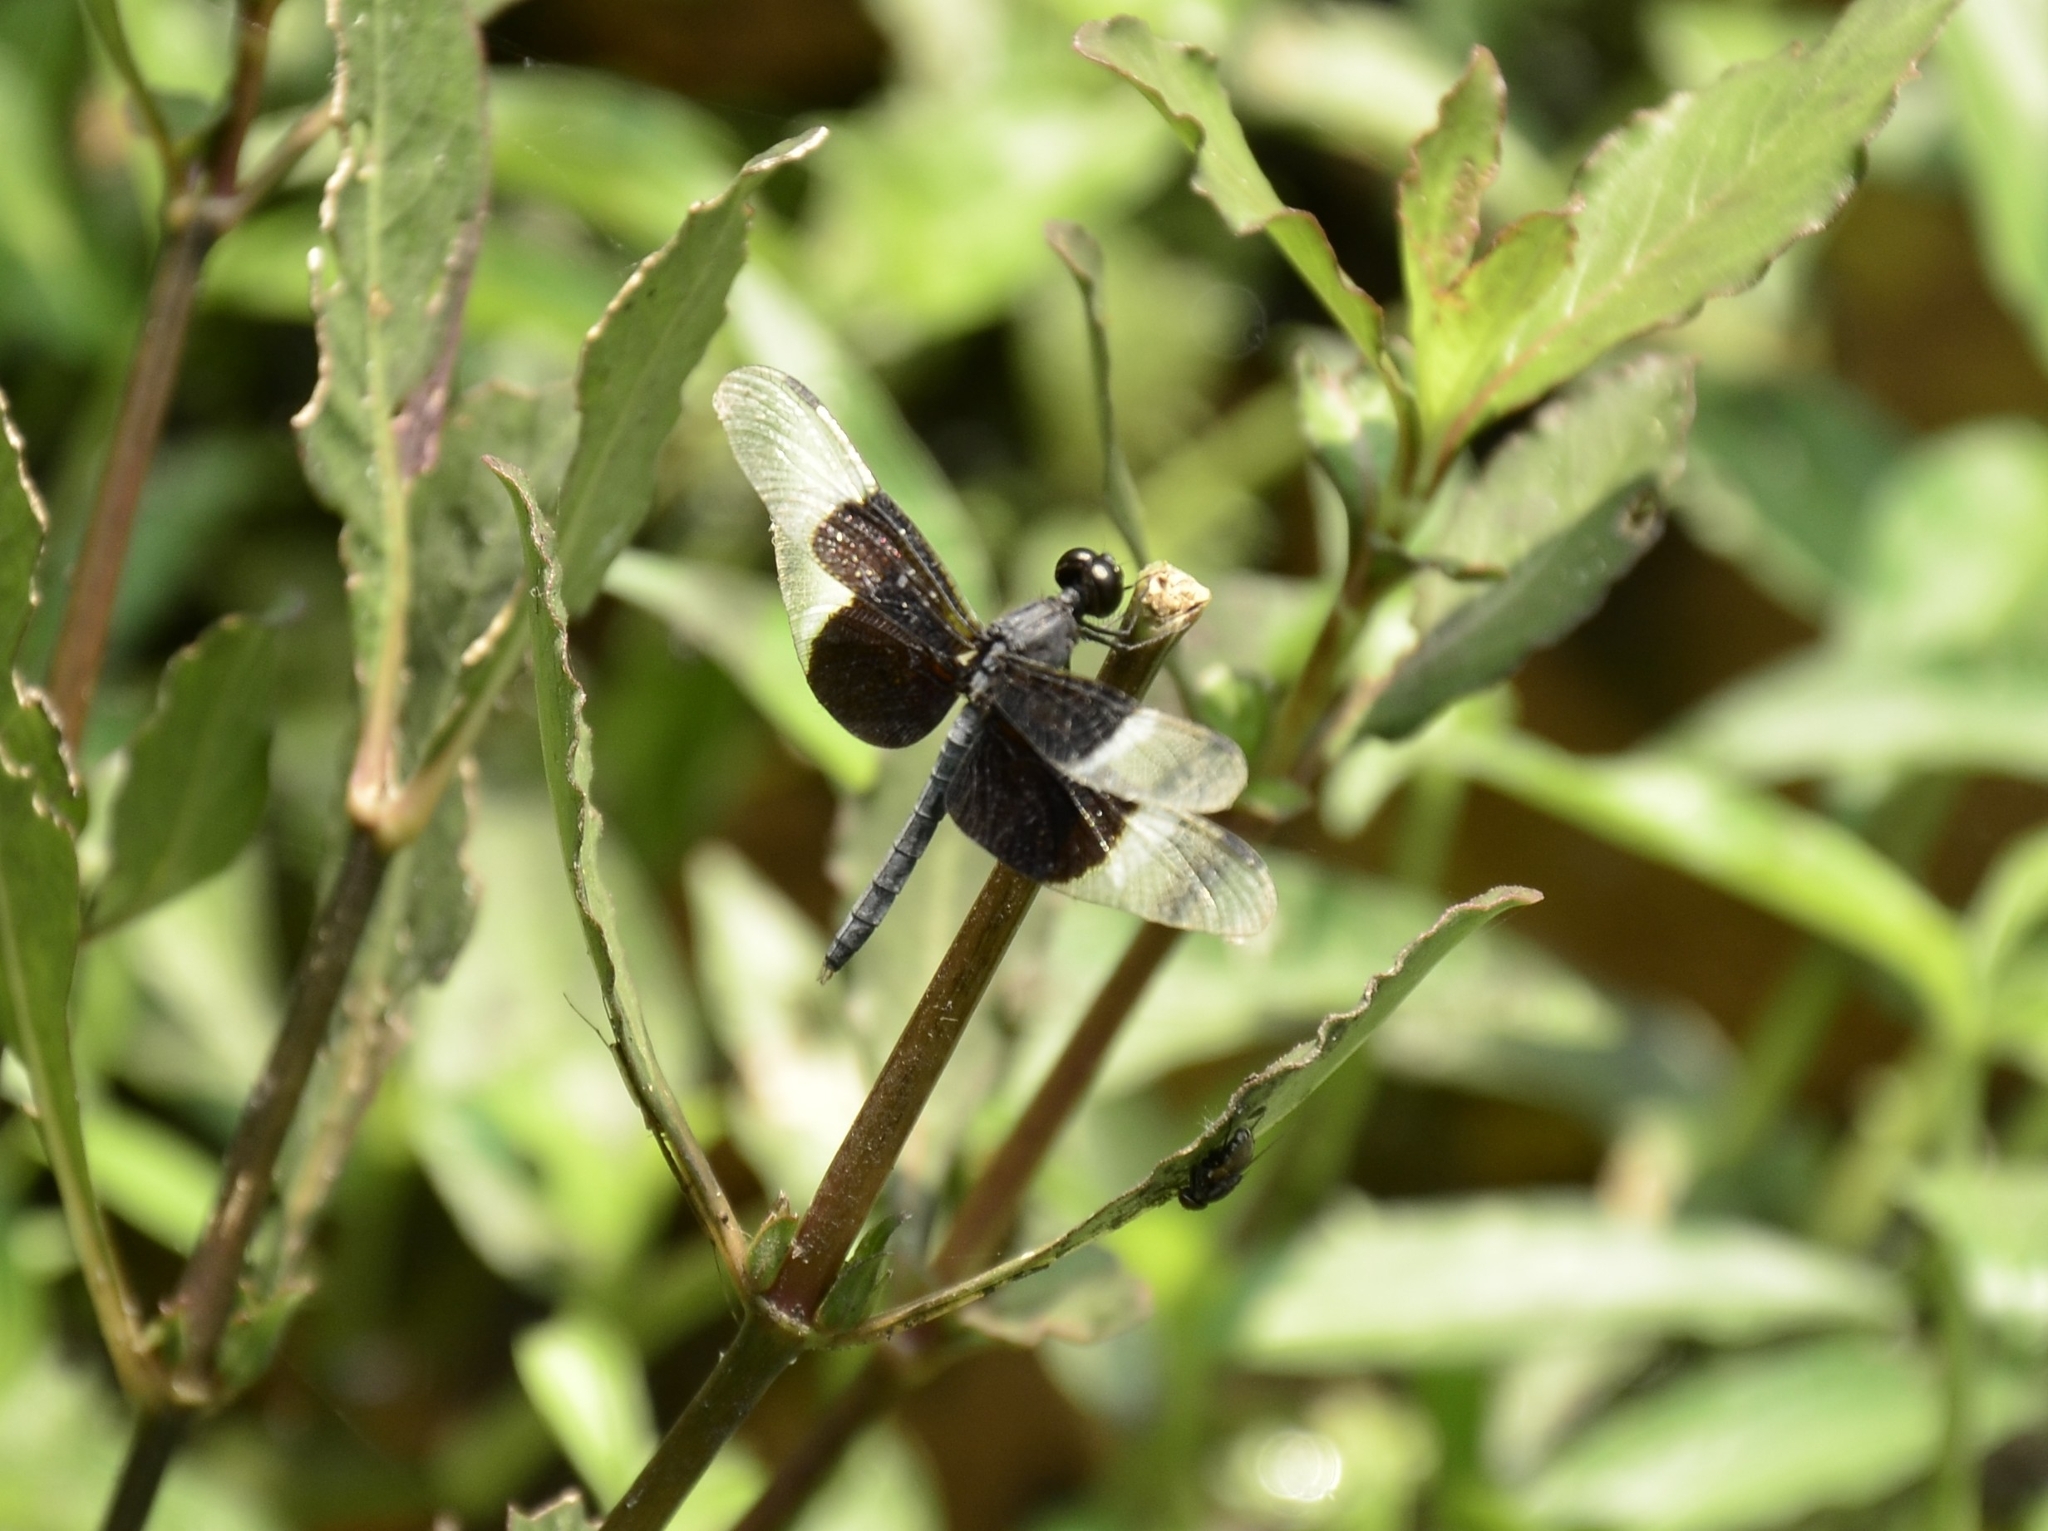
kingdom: Animalia
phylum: Arthropoda
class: Insecta
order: Odonata
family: Libellulidae
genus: Neurothemis
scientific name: Neurothemis tullia
